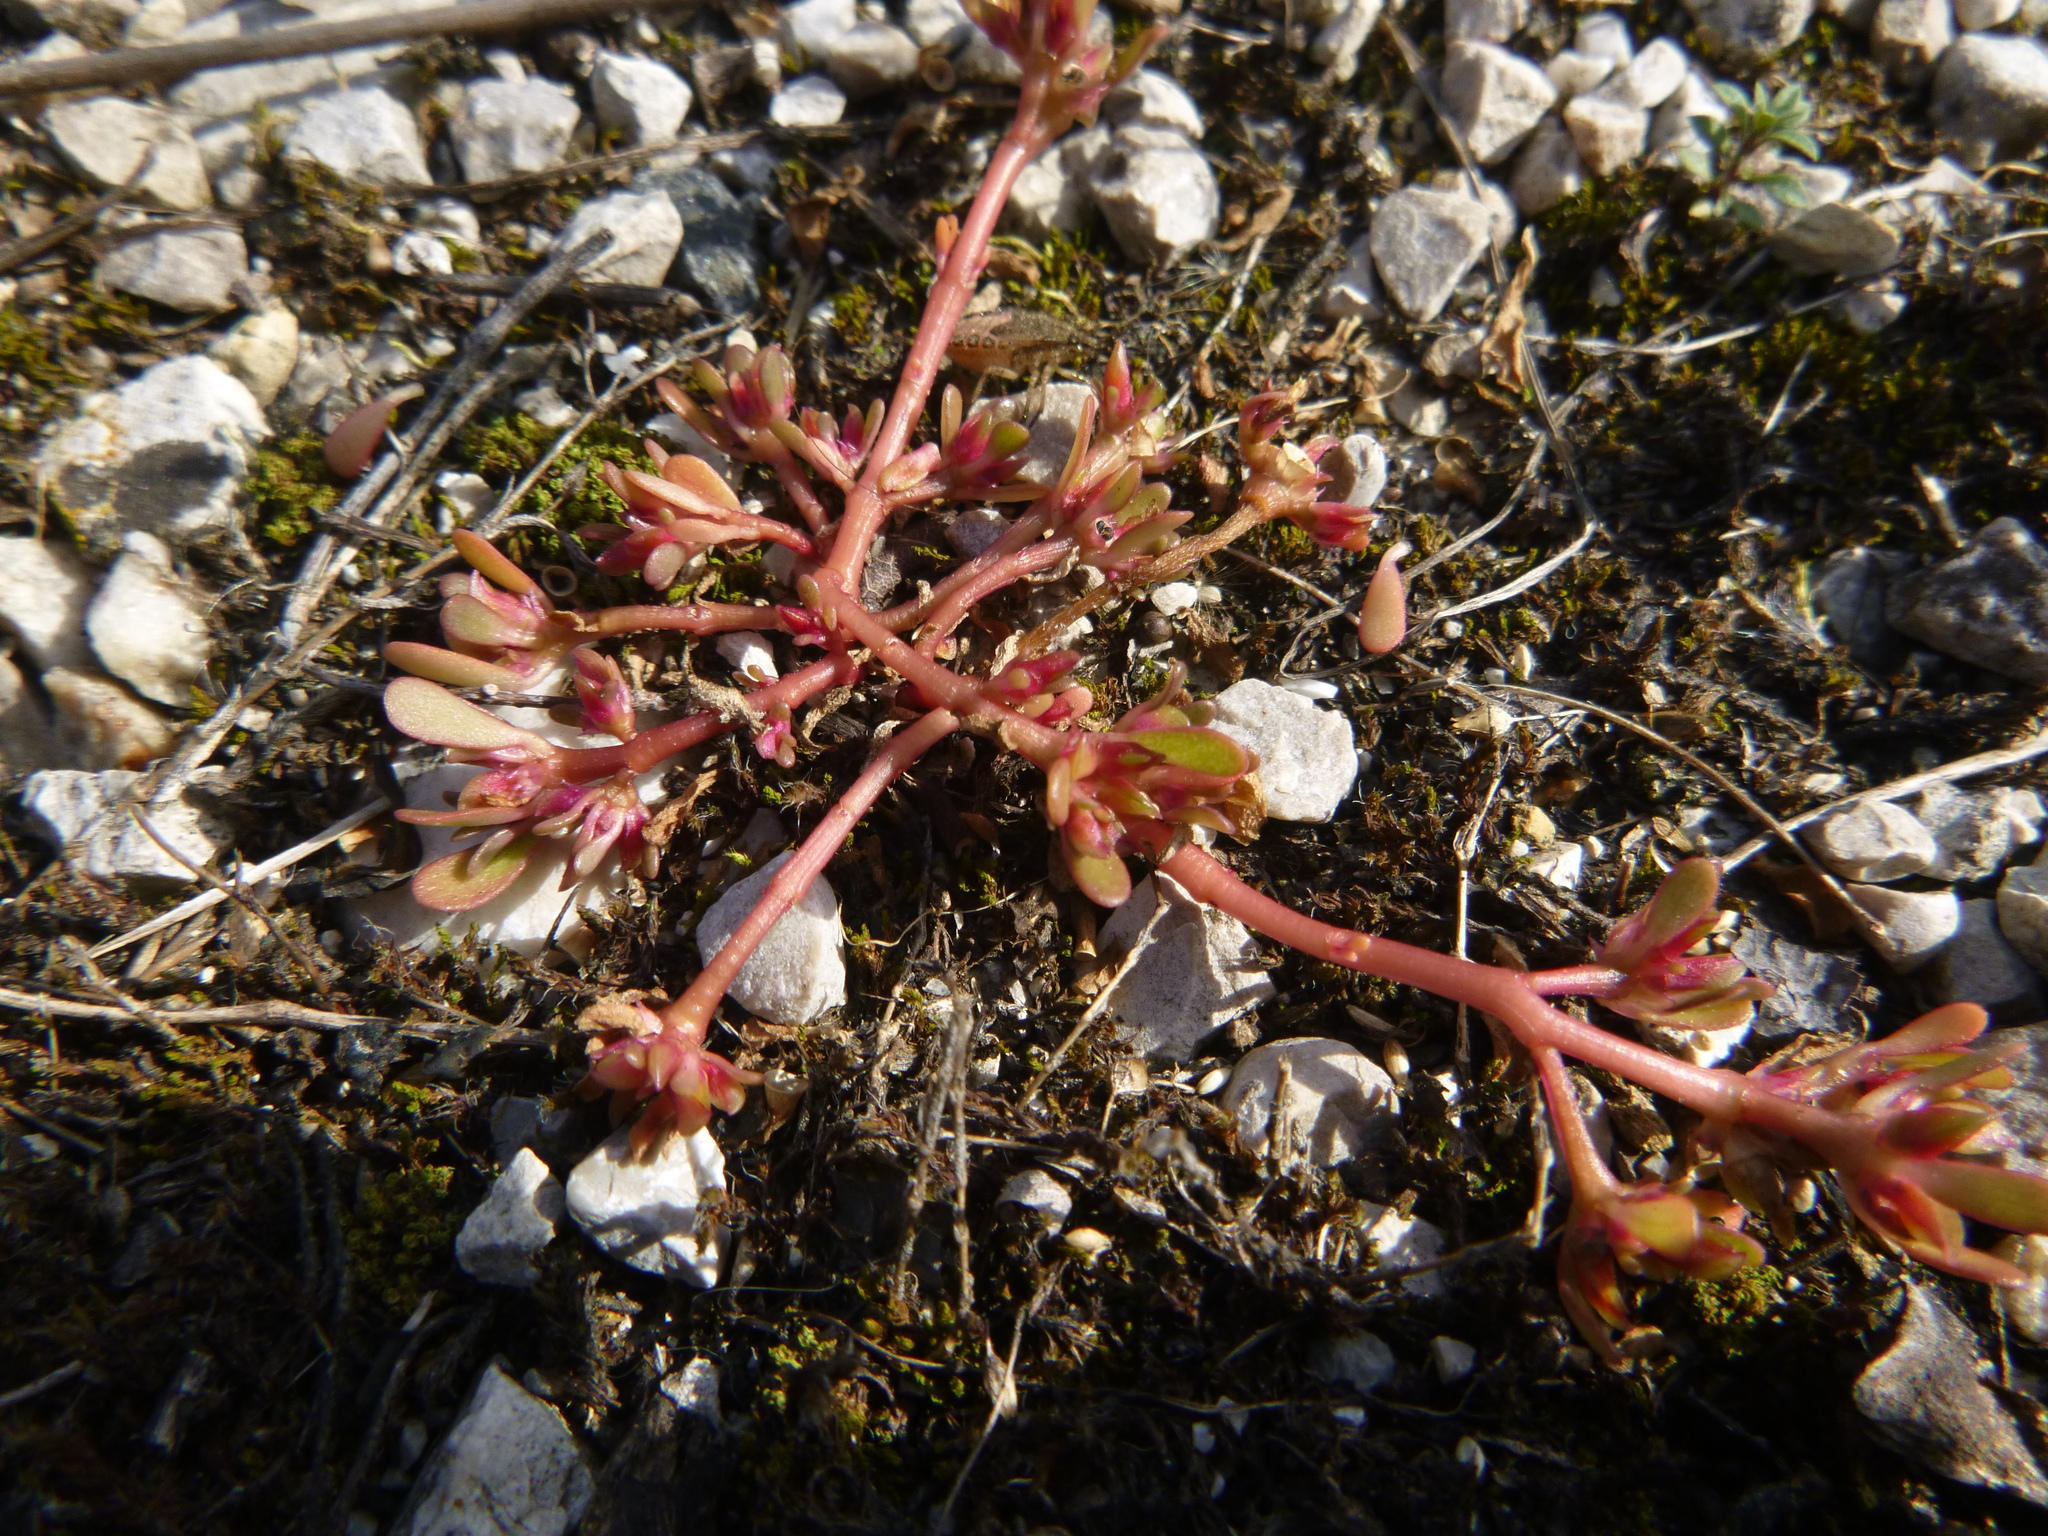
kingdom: Plantae
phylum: Tracheophyta
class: Magnoliopsida
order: Caryophyllales
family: Portulacaceae
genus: Portulaca
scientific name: Portulaca oleracea
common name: Common purslane
